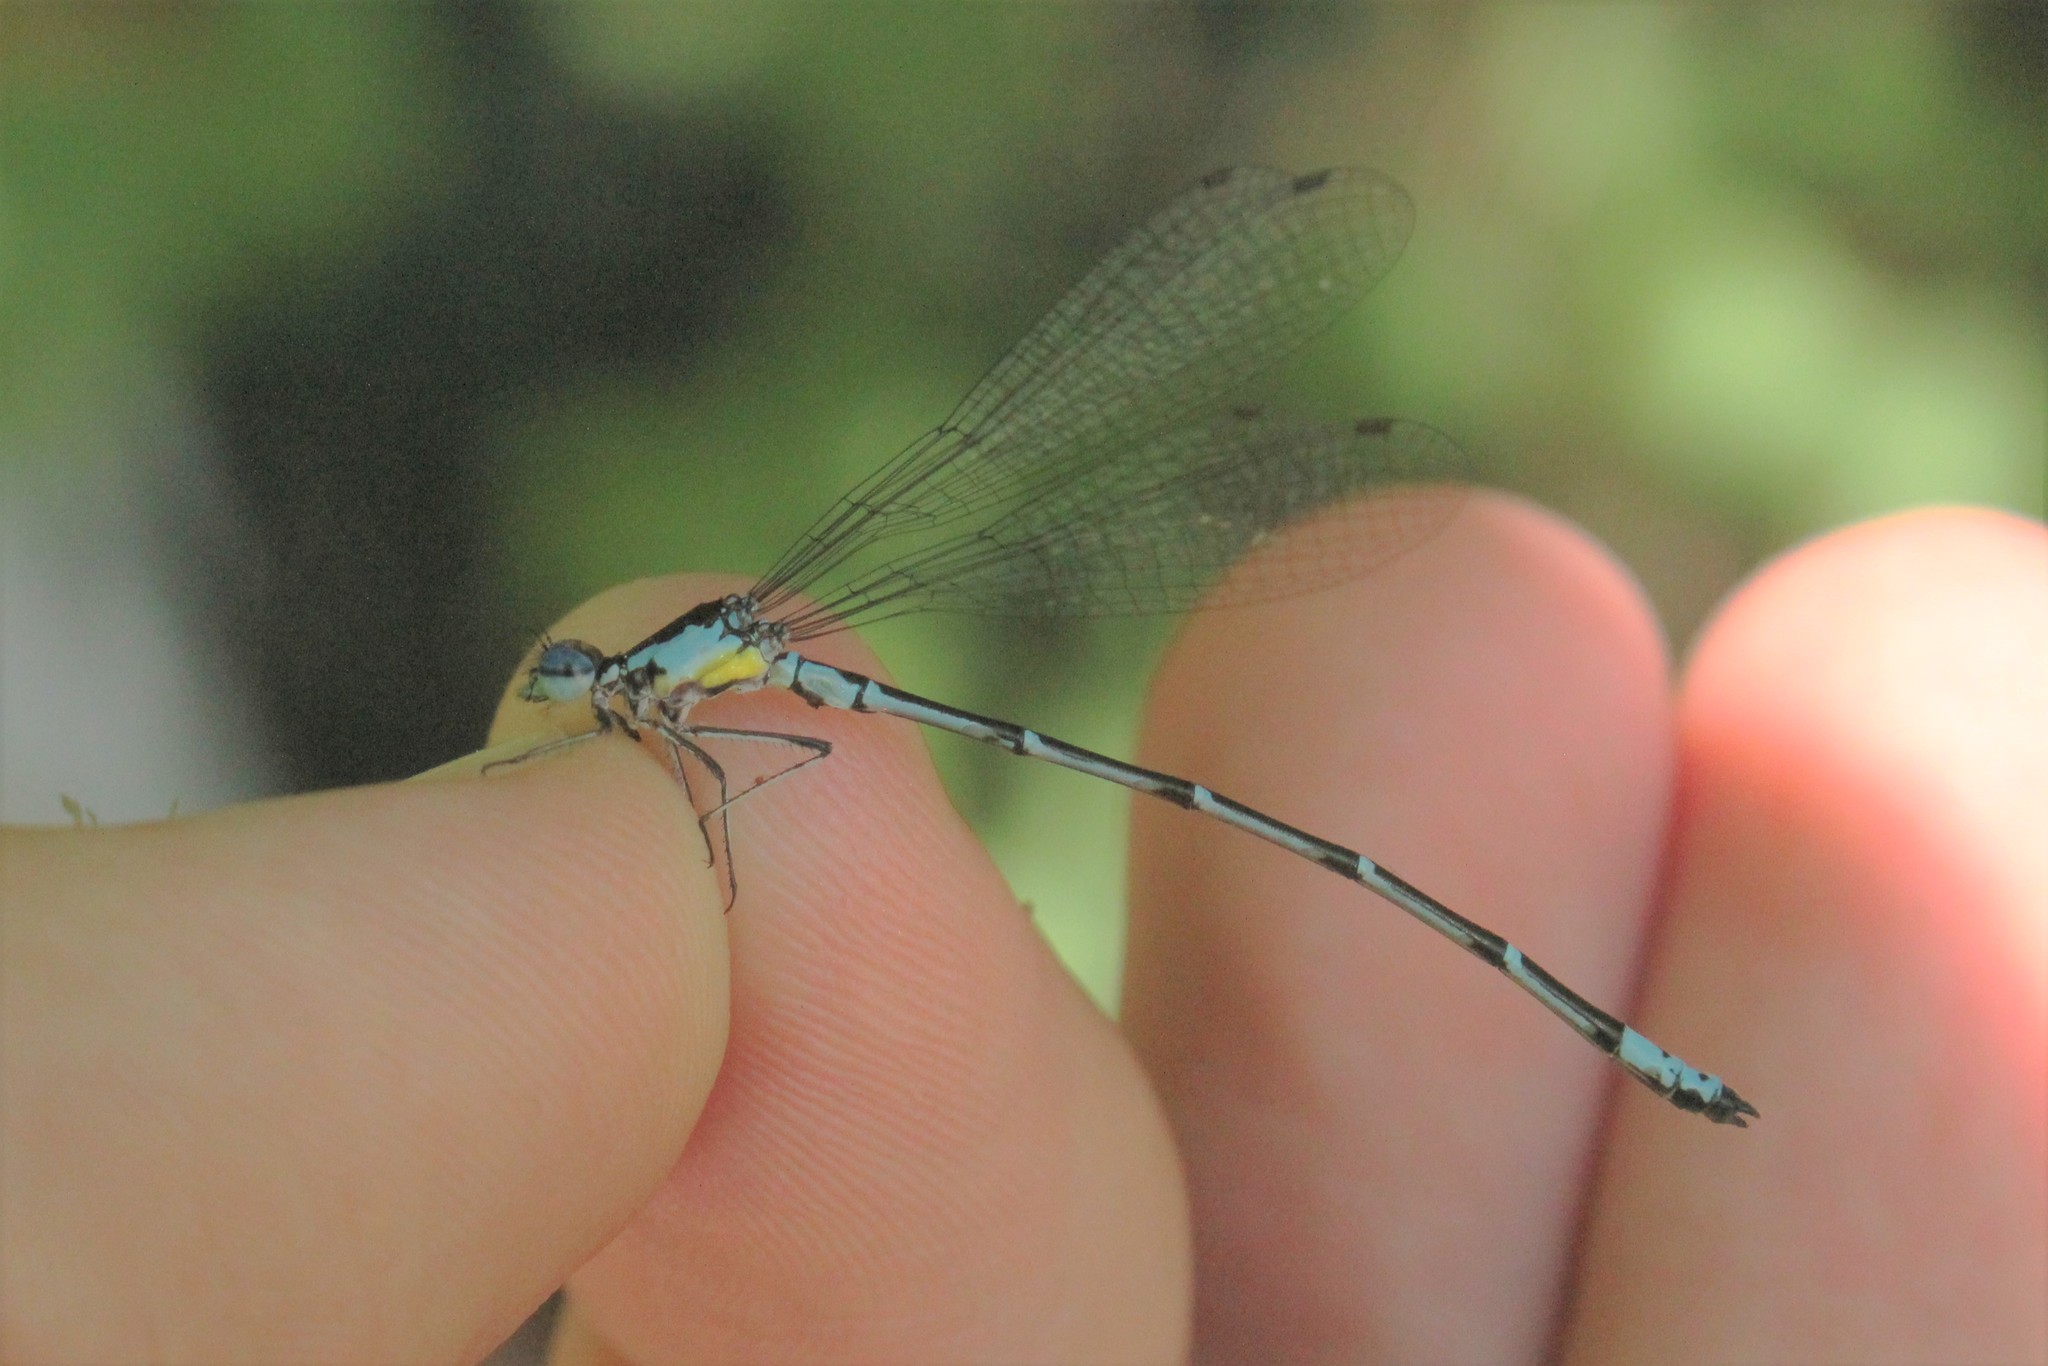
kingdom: Animalia
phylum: Arthropoda
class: Insecta
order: Odonata
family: Coenagrionidae
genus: Chromagrion
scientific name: Chromagrion conditum
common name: Aurora damsel
